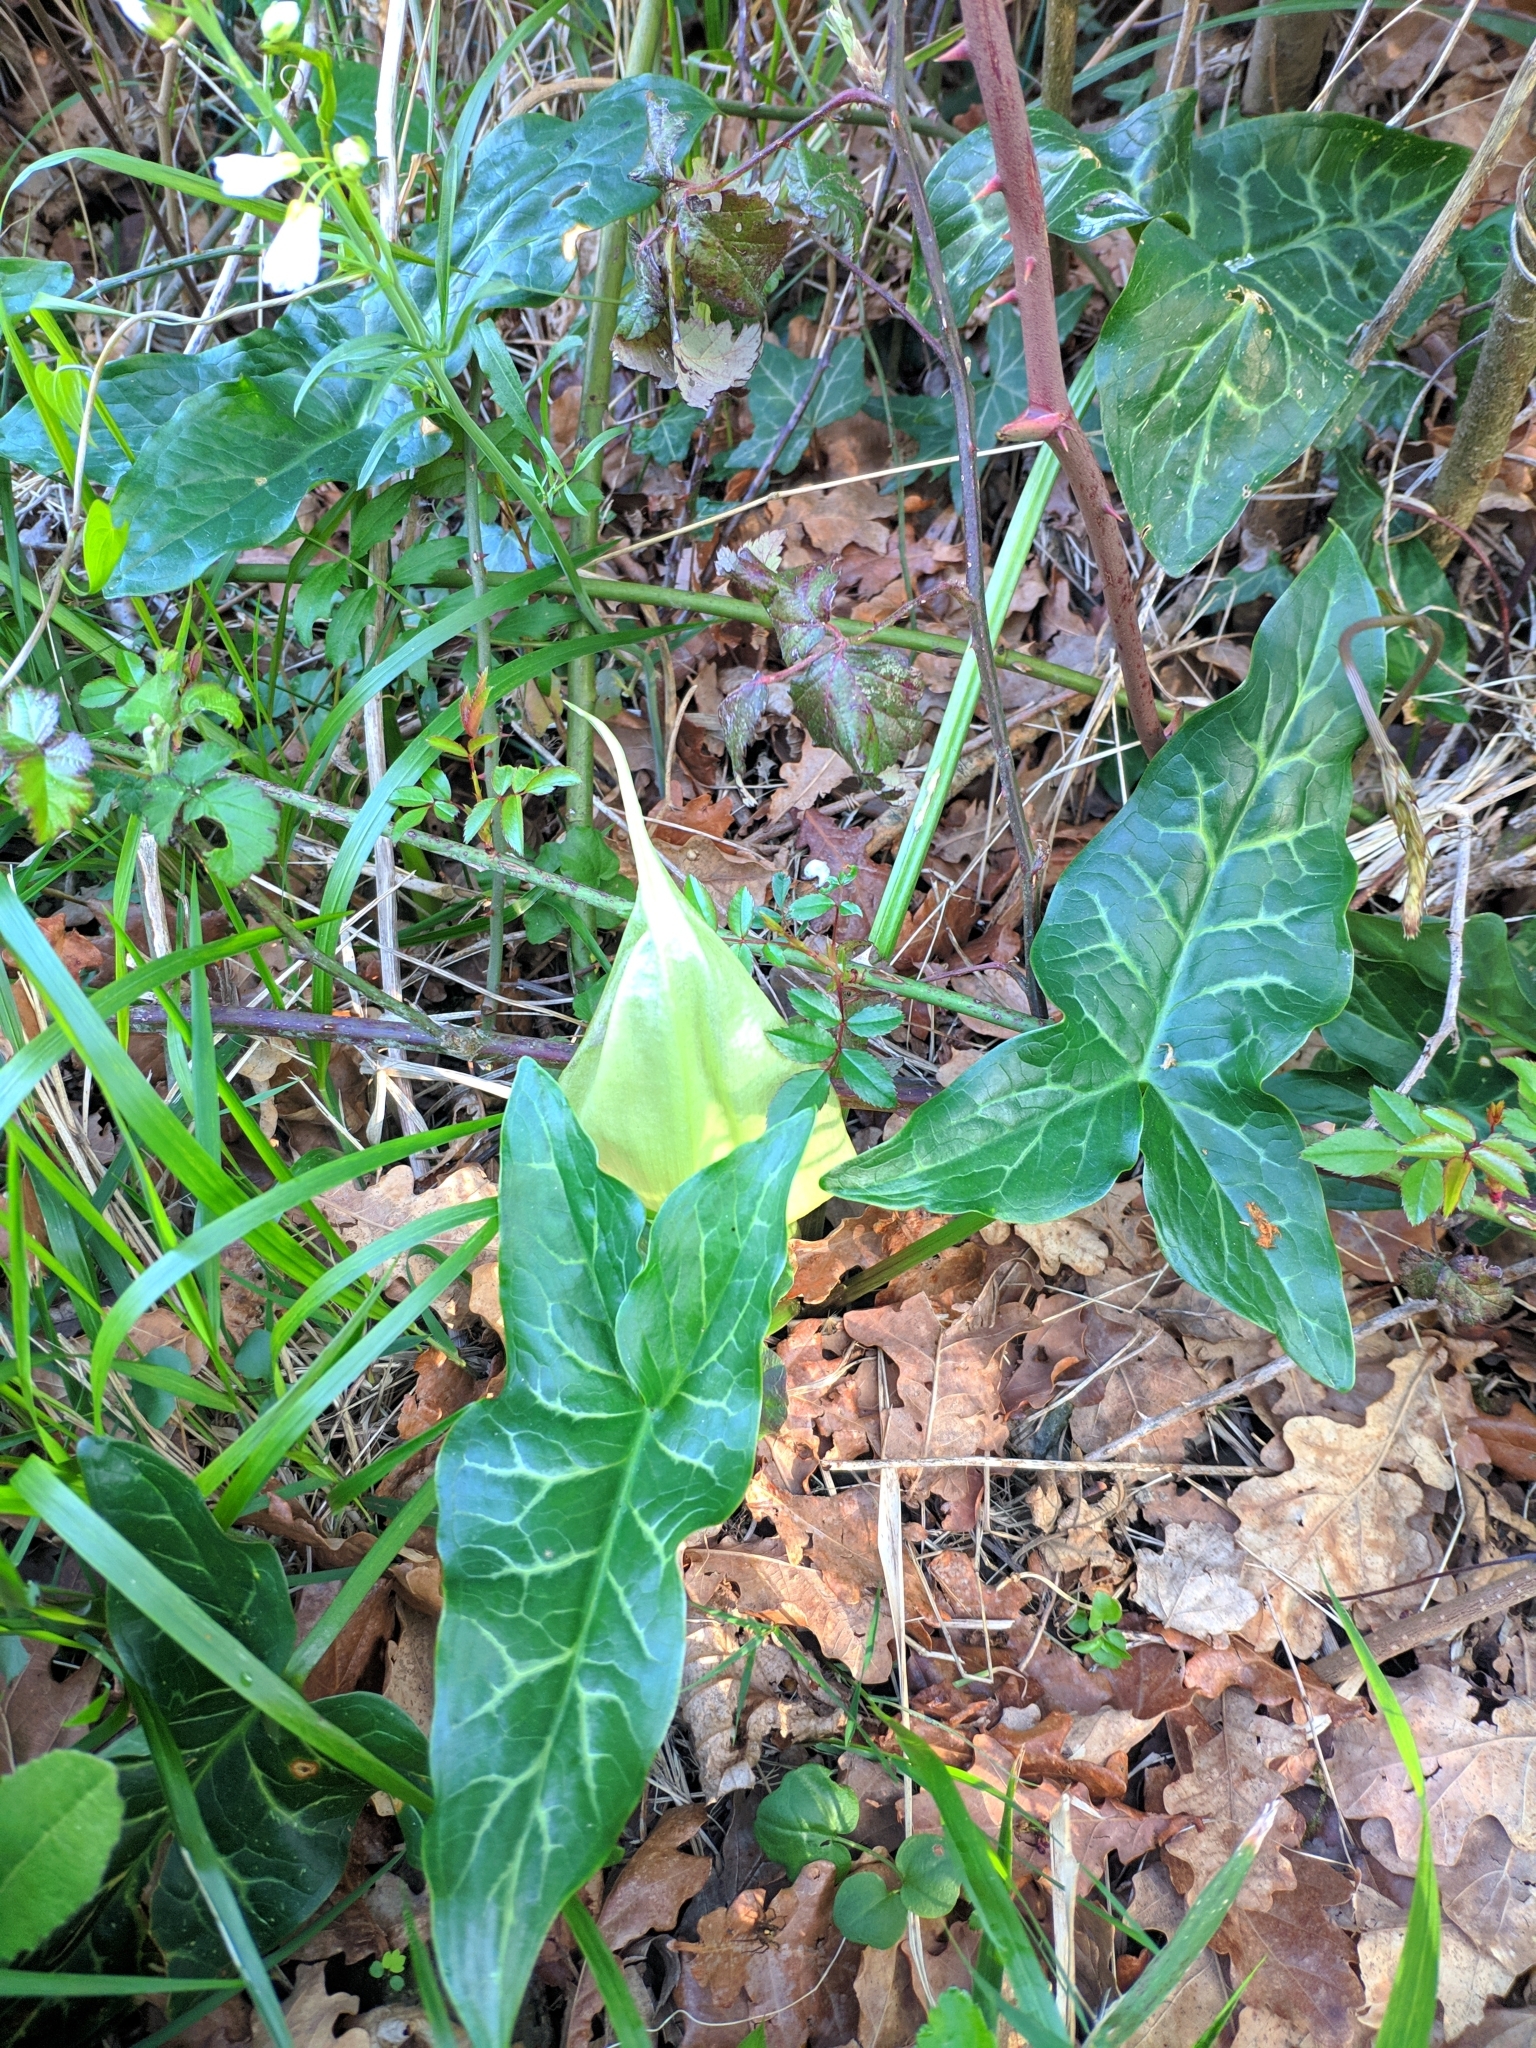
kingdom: Plantae
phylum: Tracheophyta
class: Liliopsida
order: Alismatales
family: Araceae
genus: Arum
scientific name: Arum italicum
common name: Italian lords-and-ladies
